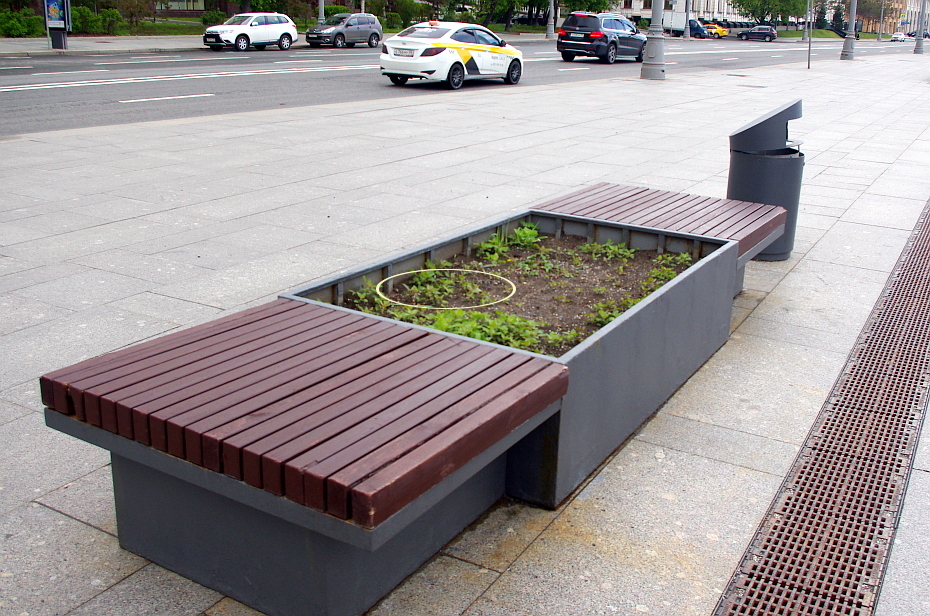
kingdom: Plantae
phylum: Tracheophyta
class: Magnoliopsida
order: Caryophyllales
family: Amaranthaceae
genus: Chenopodium
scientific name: Chenopodium album
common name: Fat-hen
